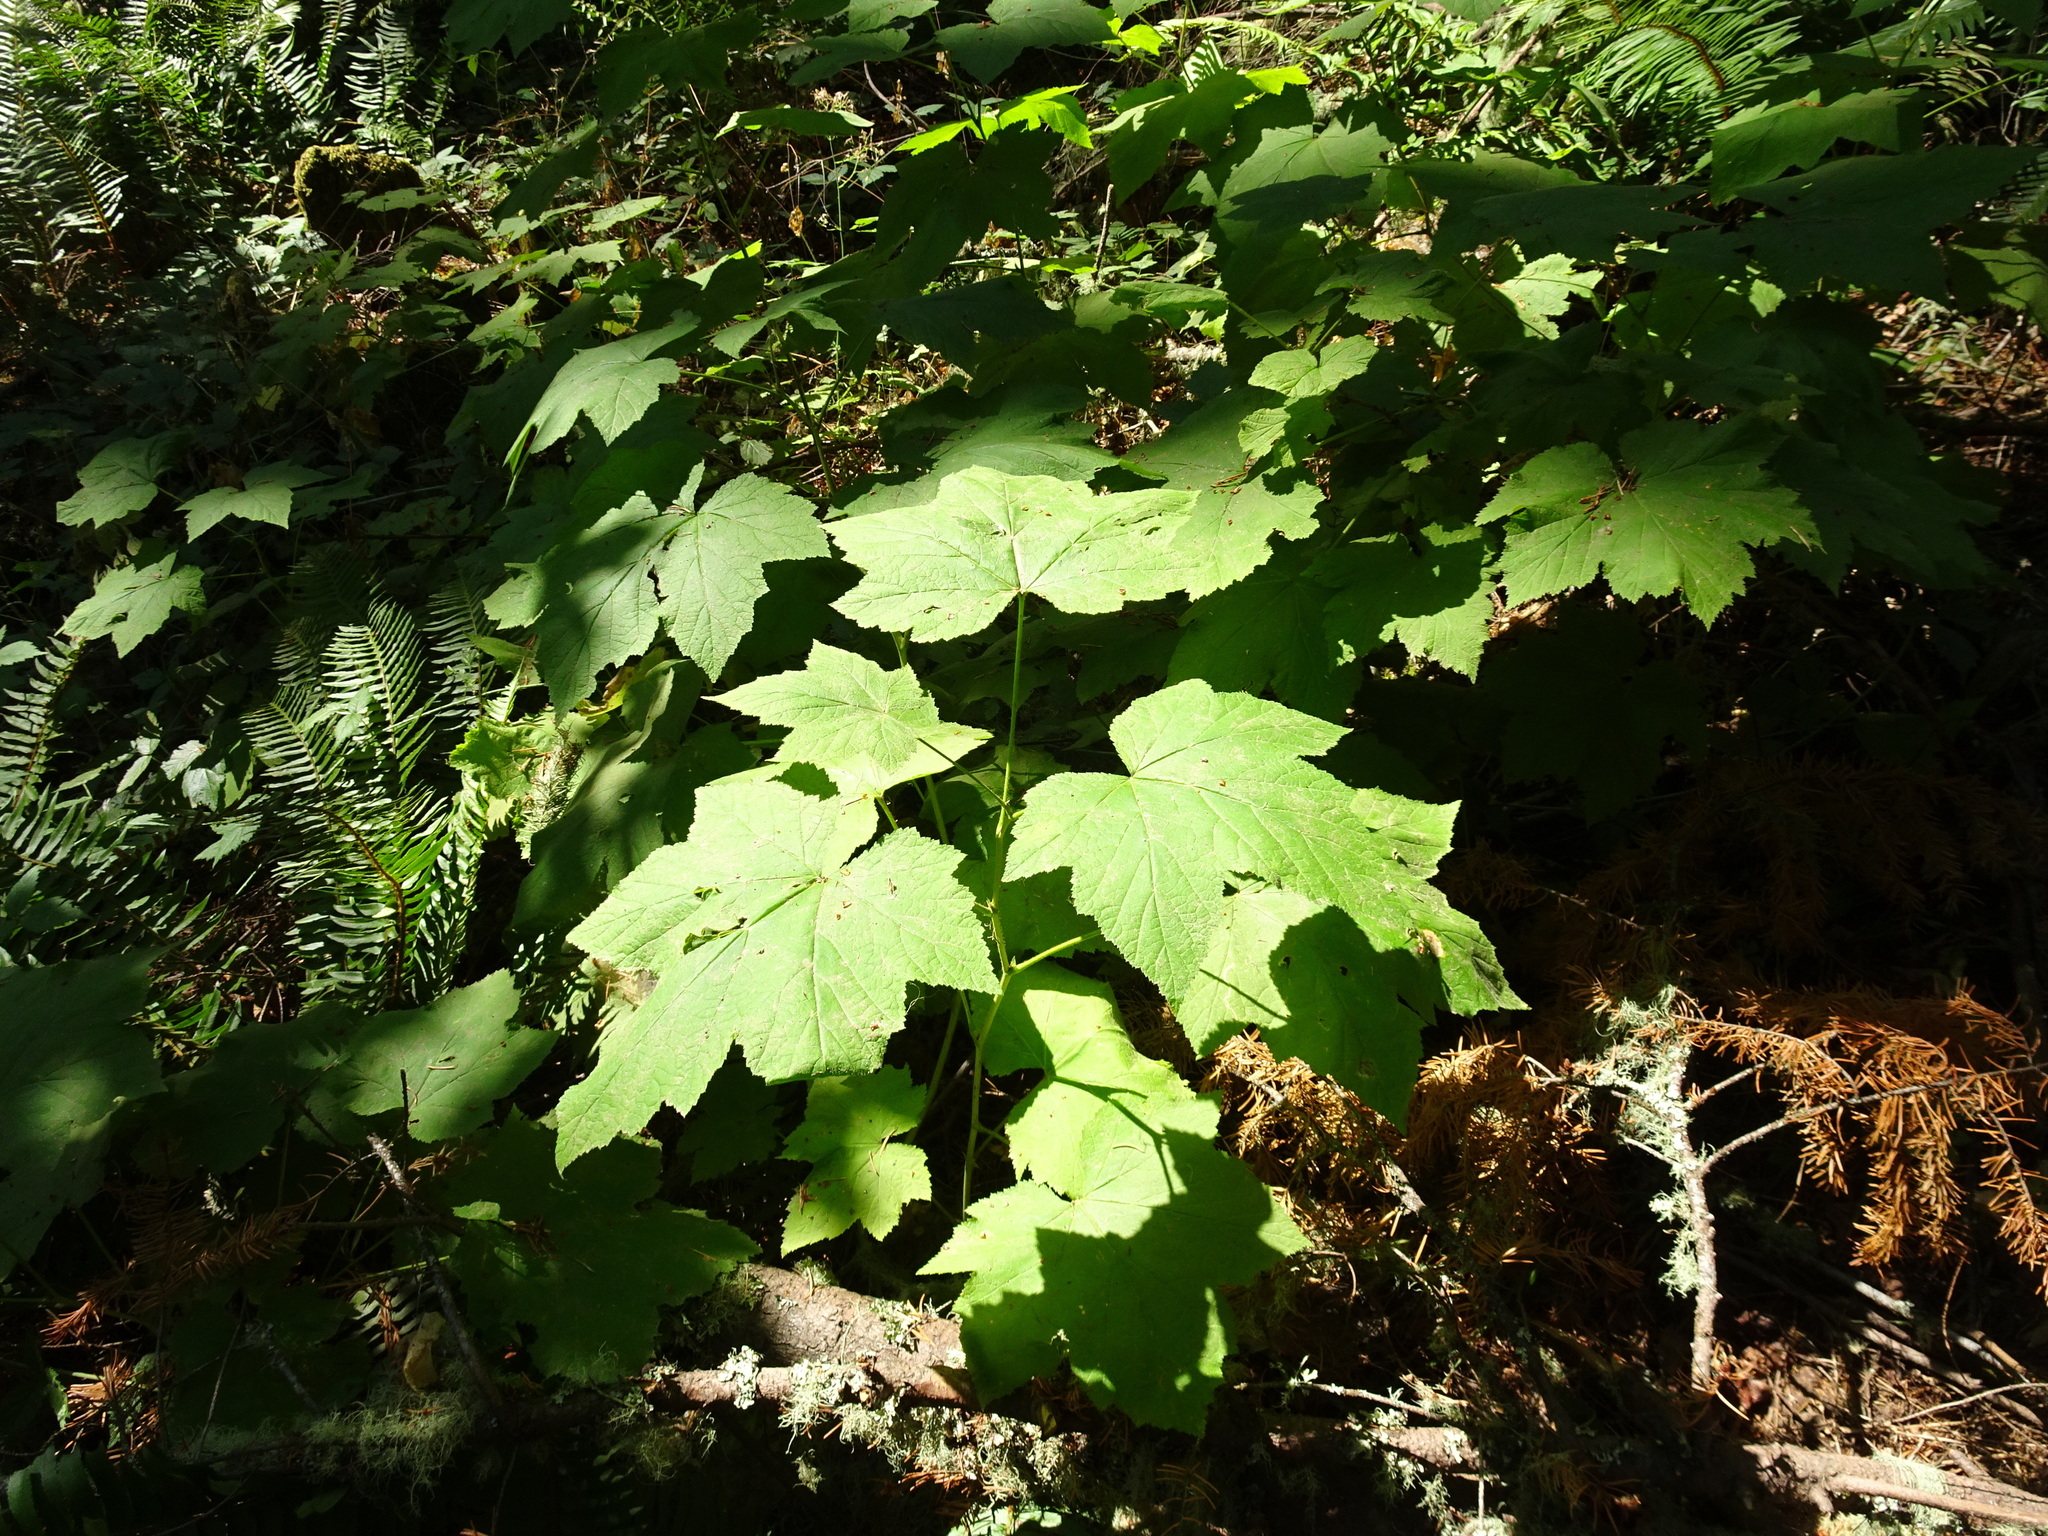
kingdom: Plantae
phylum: Tracheophyta
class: Magnoliopsida
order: Rosales
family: Rosaceae
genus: Rubus
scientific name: Rubus parviflorus
